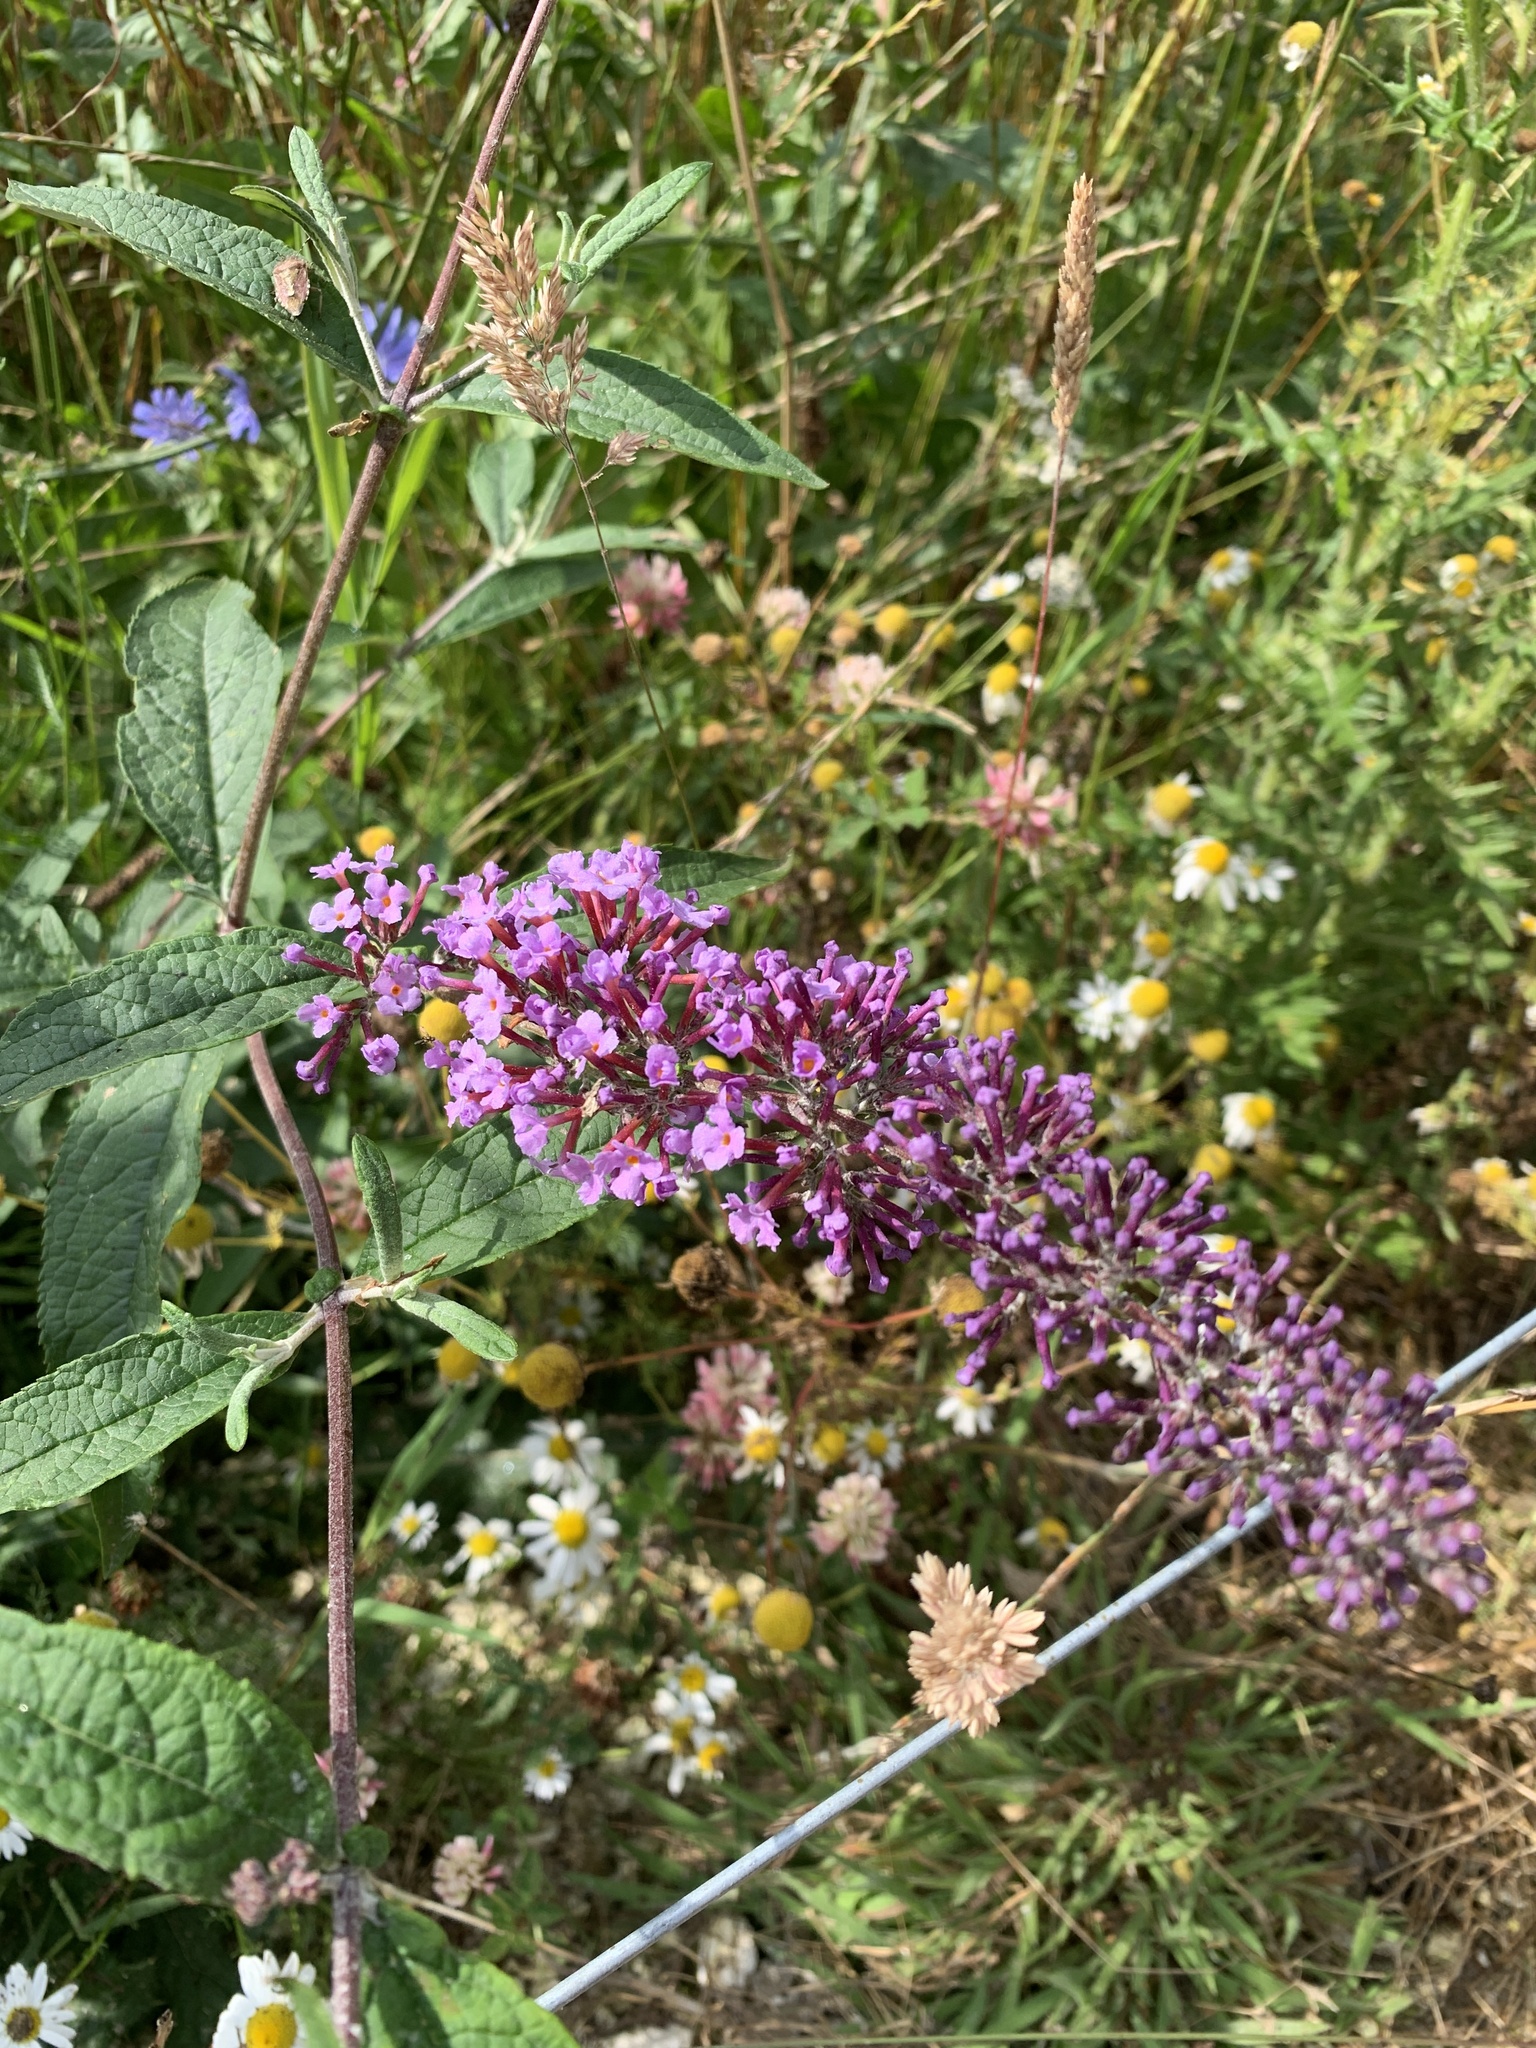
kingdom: Plantae
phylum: Tracheophyta
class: Magnoliopsida
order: Lamiales
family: Scrophulariaceae
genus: Buddleja
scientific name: Buddleja davidii
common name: Butterfly-bush
